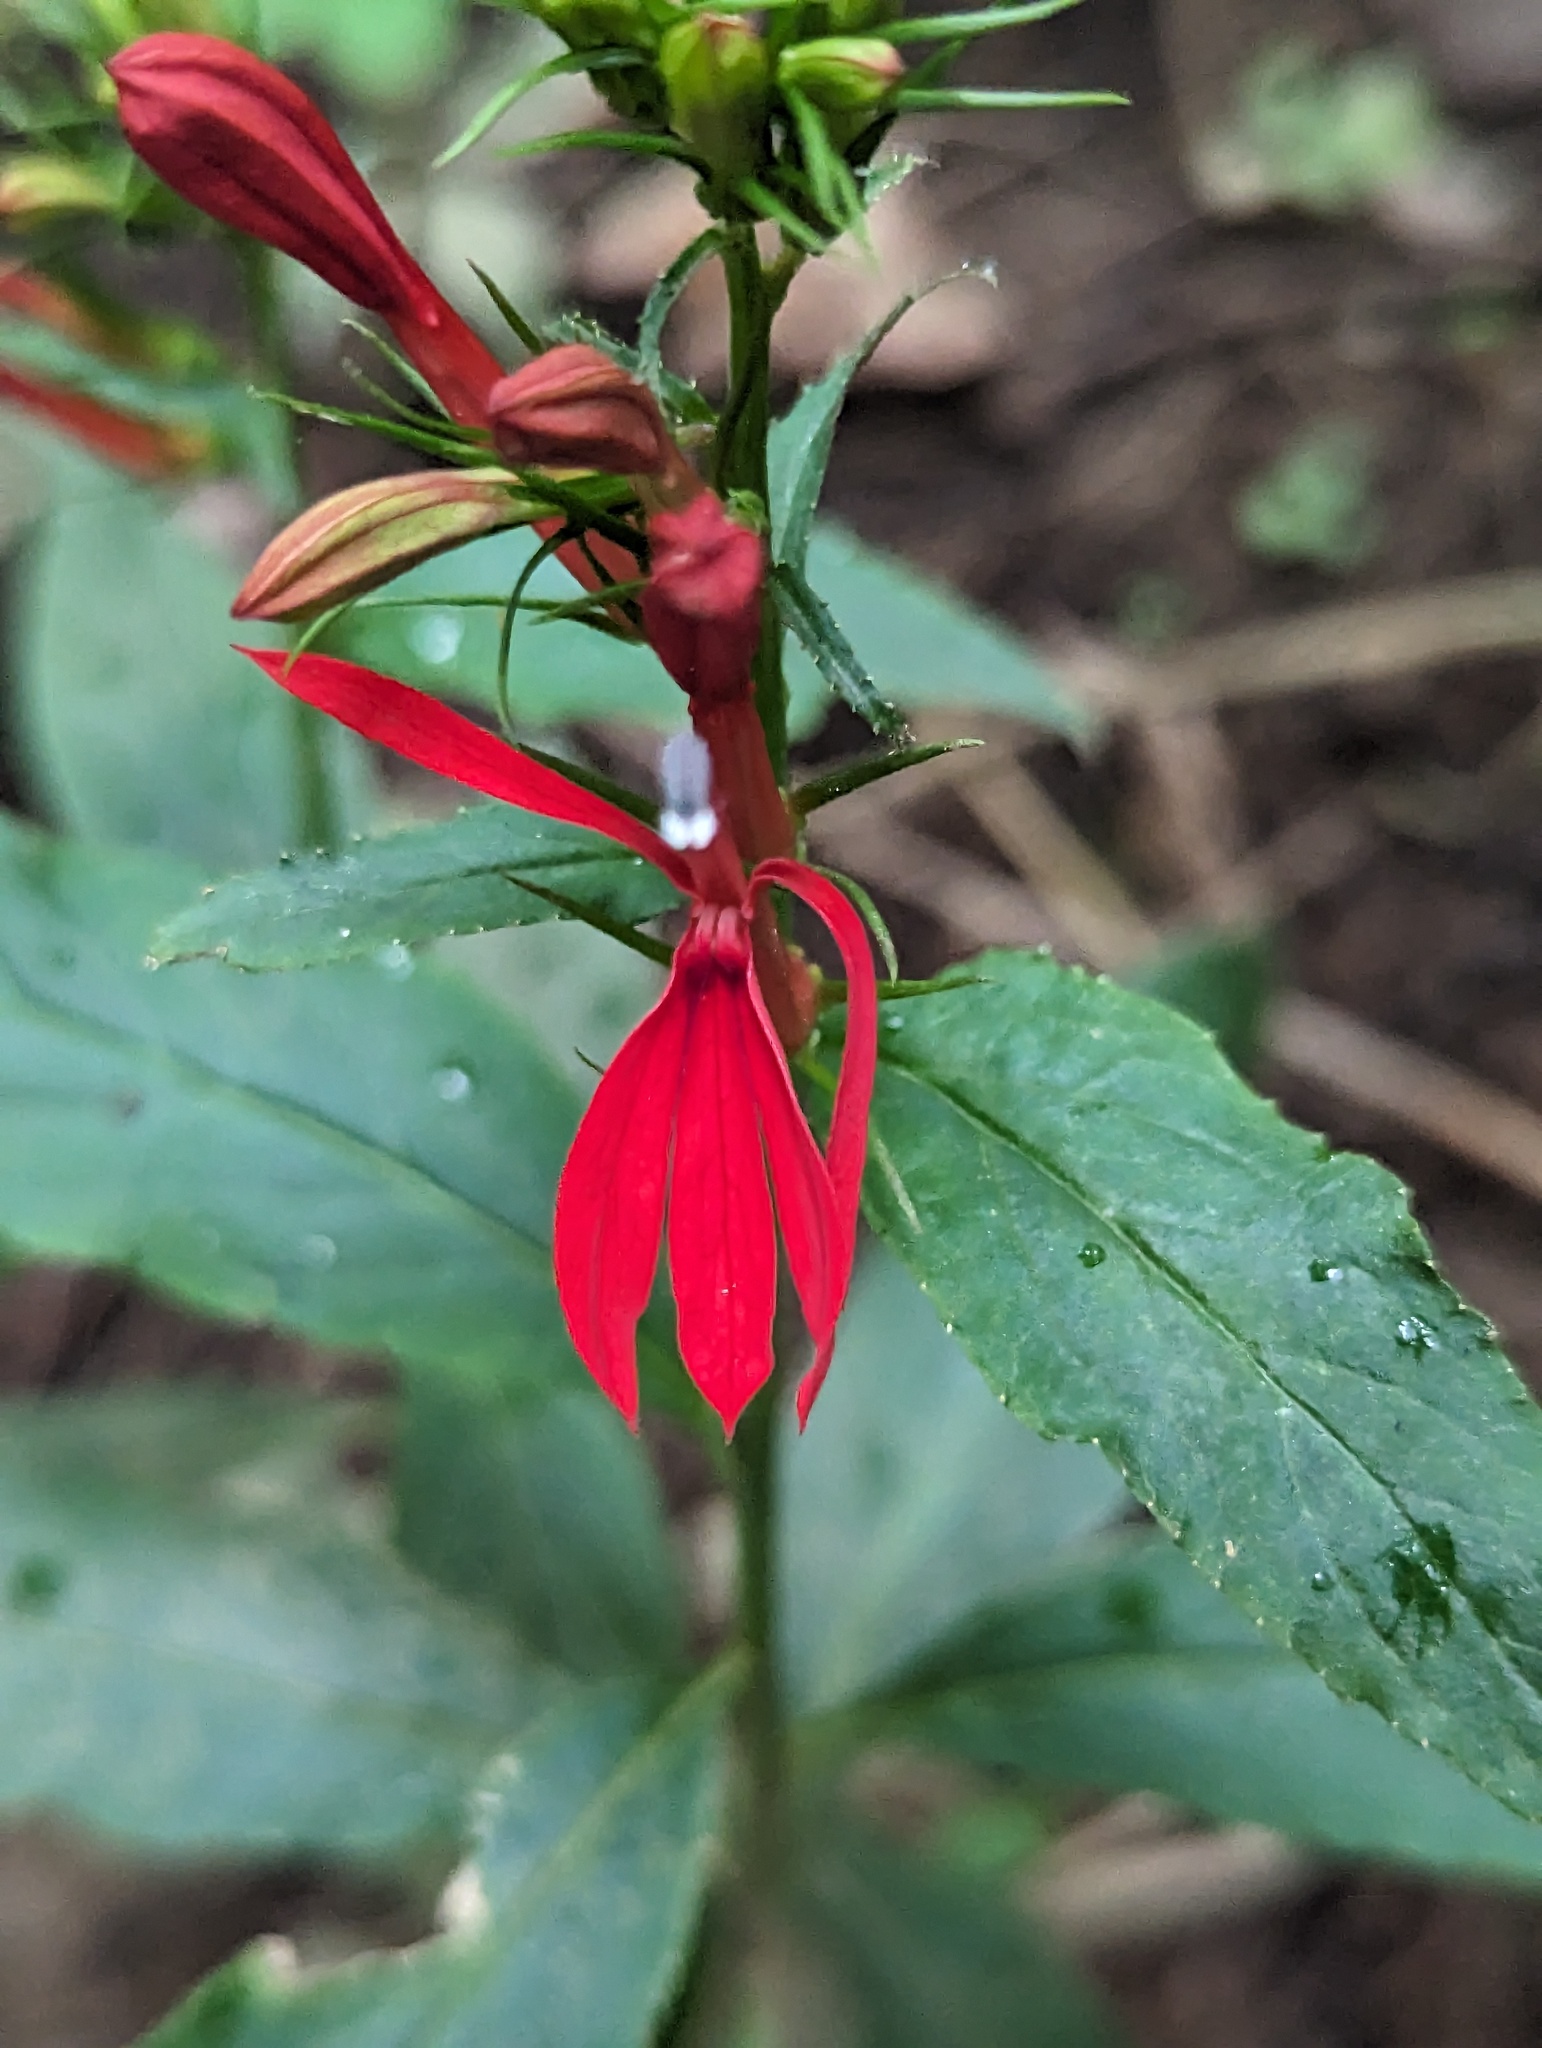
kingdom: Plantae
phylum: Tracheophyta
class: Magnoliopsida
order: Asterales
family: Campanulaceae
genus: Lobelia
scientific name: Lobelia cardinalis
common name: Cardinal flower
